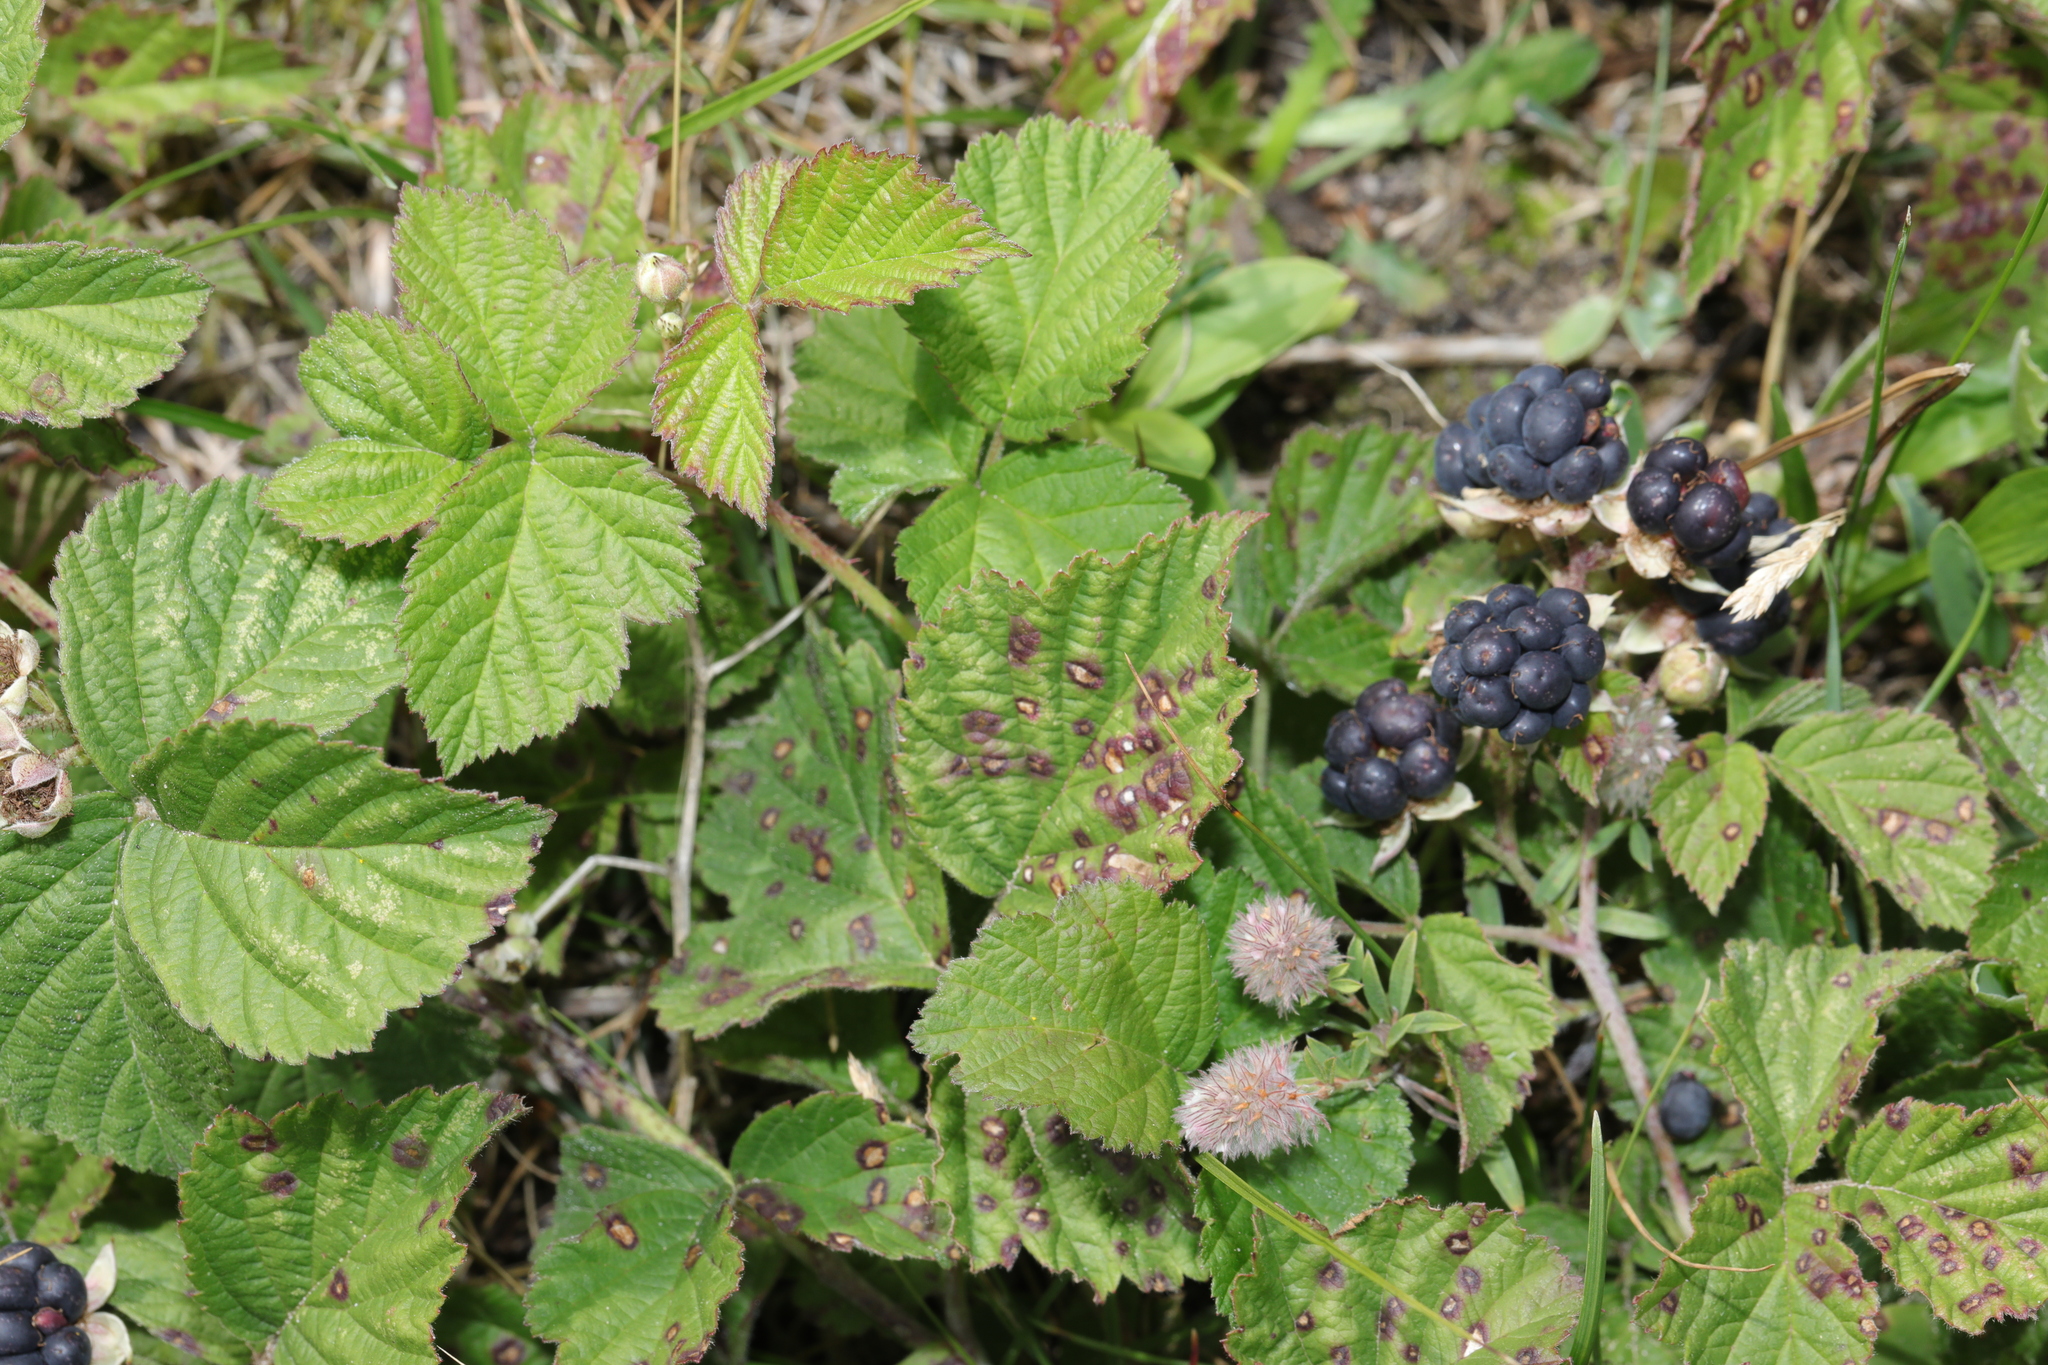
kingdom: Plantae
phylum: Tracheophyta
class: Magnoliopsida
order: Rosales
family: Rosaceae
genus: Rubus
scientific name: Rubus caesius
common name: Dewberry
